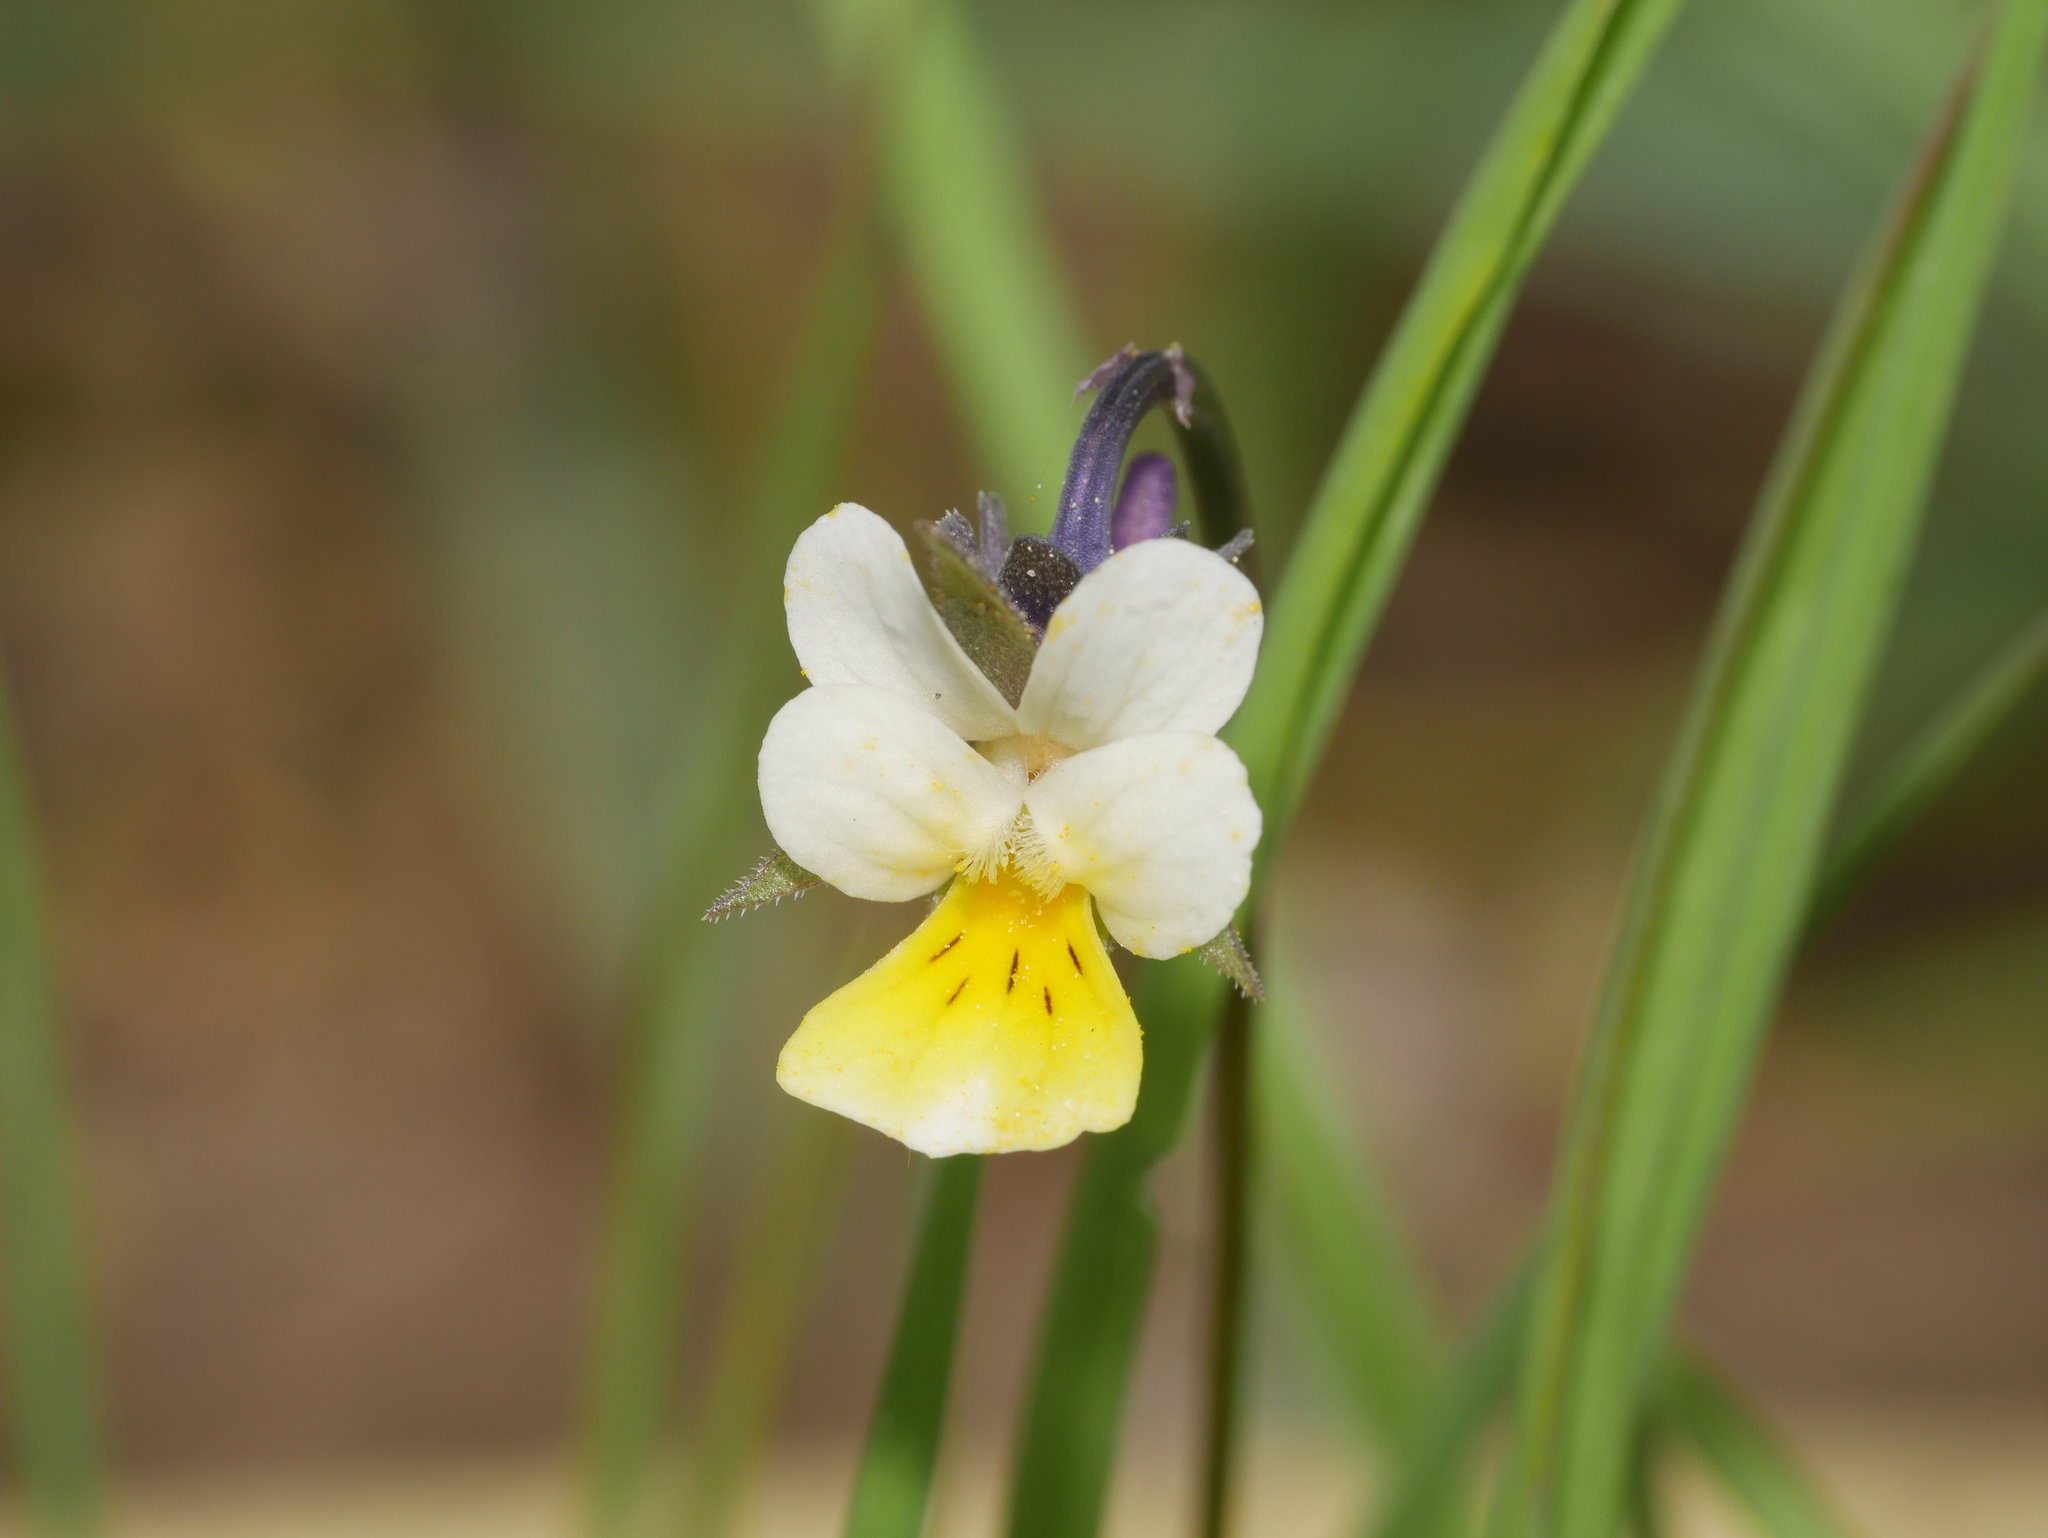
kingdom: Plantae
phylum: Tracheophyta
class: Magnoliopsida
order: Malpighiales
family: Violaceae
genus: Viola
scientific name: Viola arvensis
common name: Field pansy
